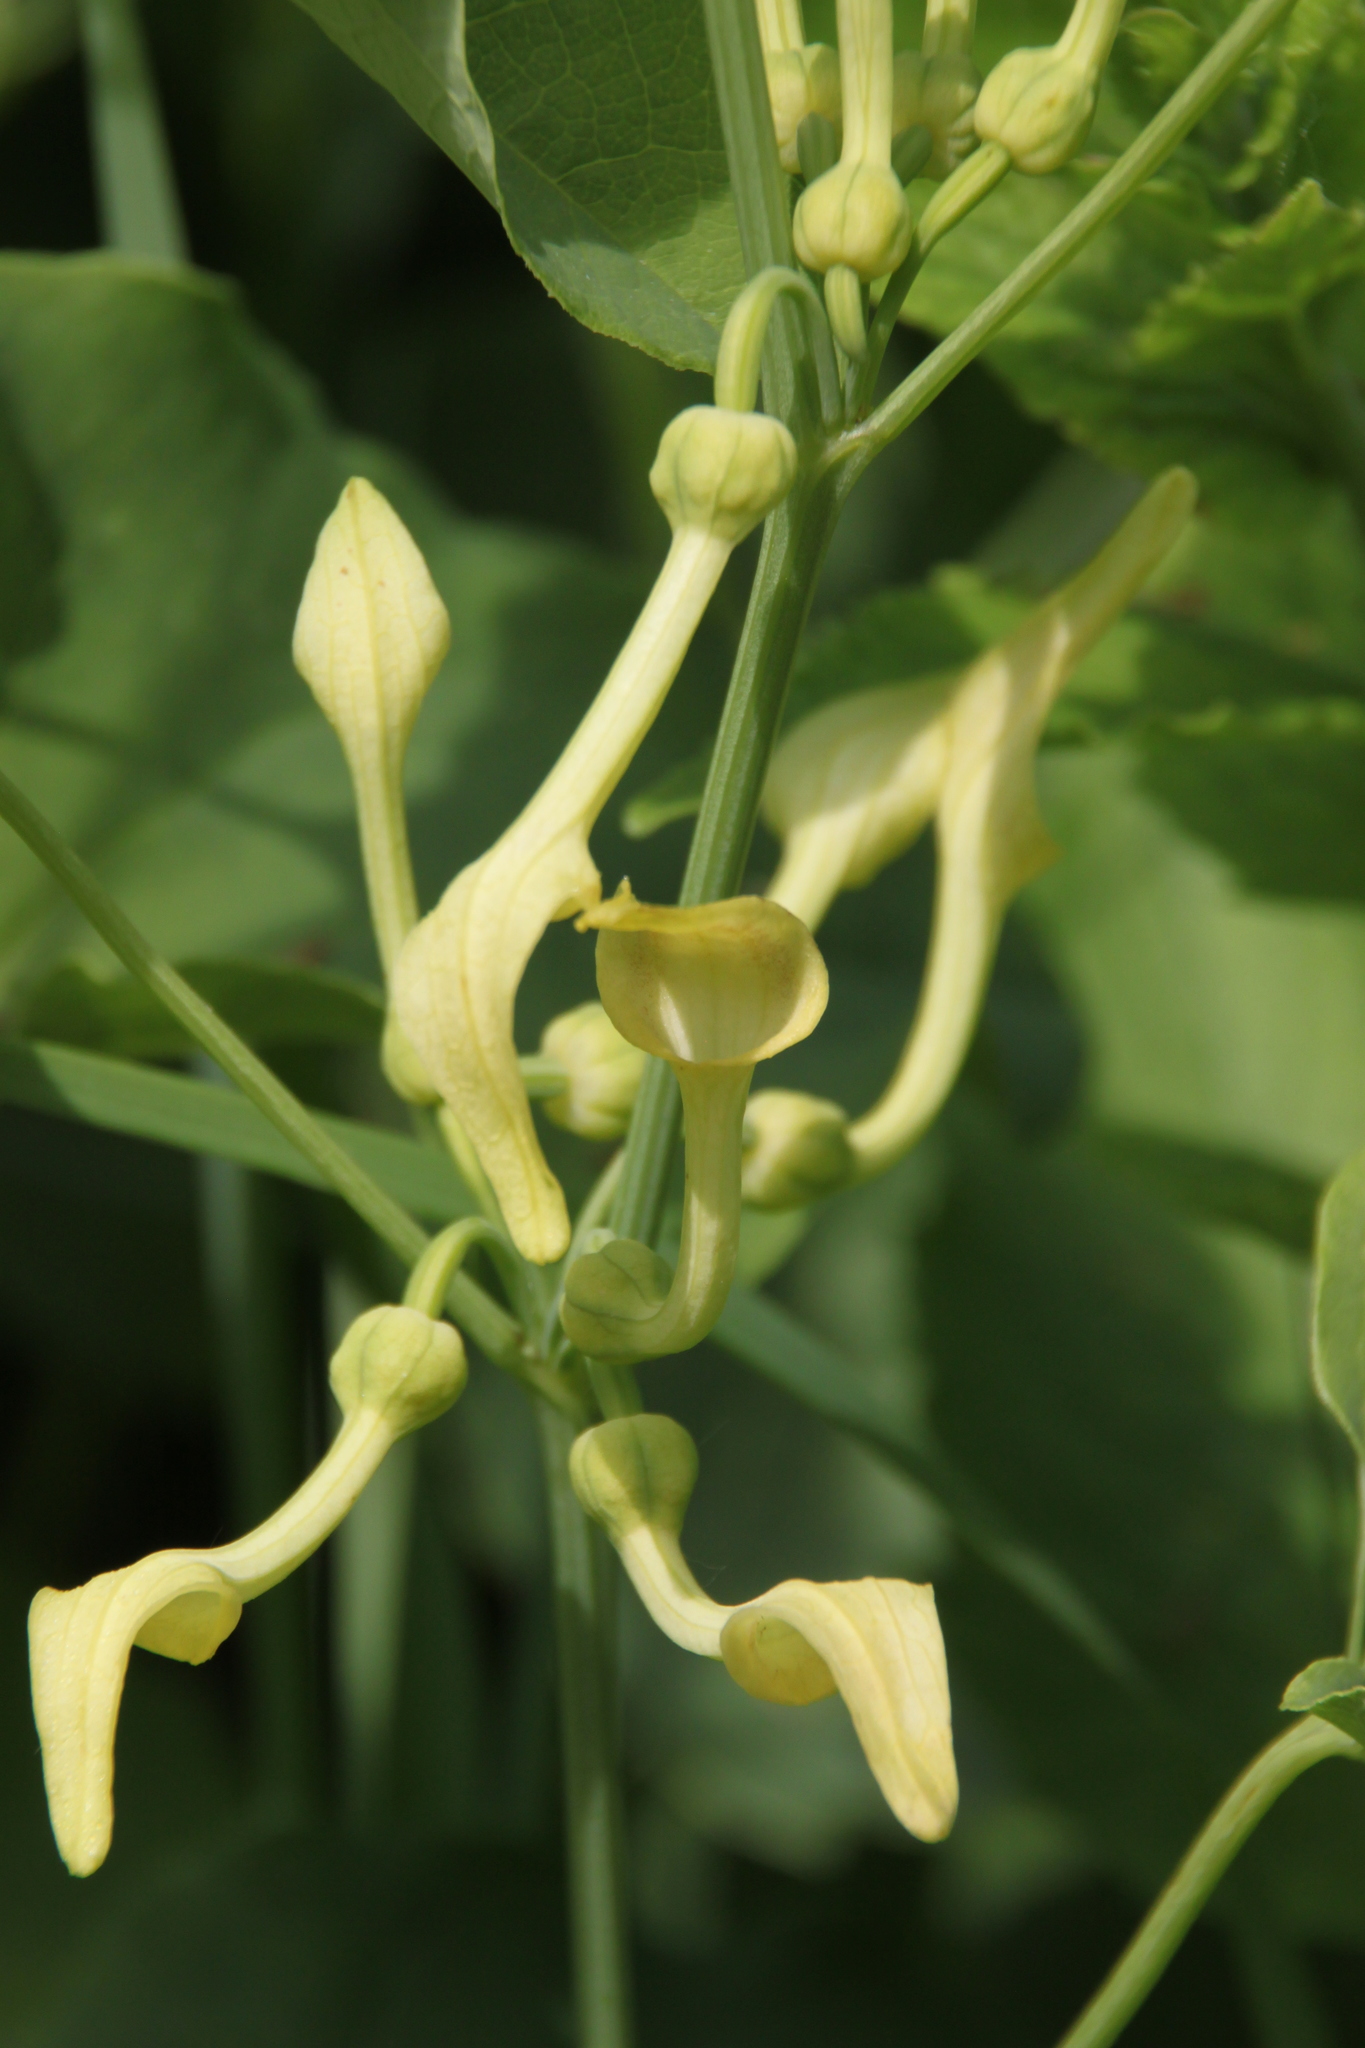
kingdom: Plantae
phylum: Tracheophyta
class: Magnoliopsida
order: Piperales
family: Aristolochiaceae
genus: Aristolochia
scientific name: Aristolochia clematitis
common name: Birthwort
